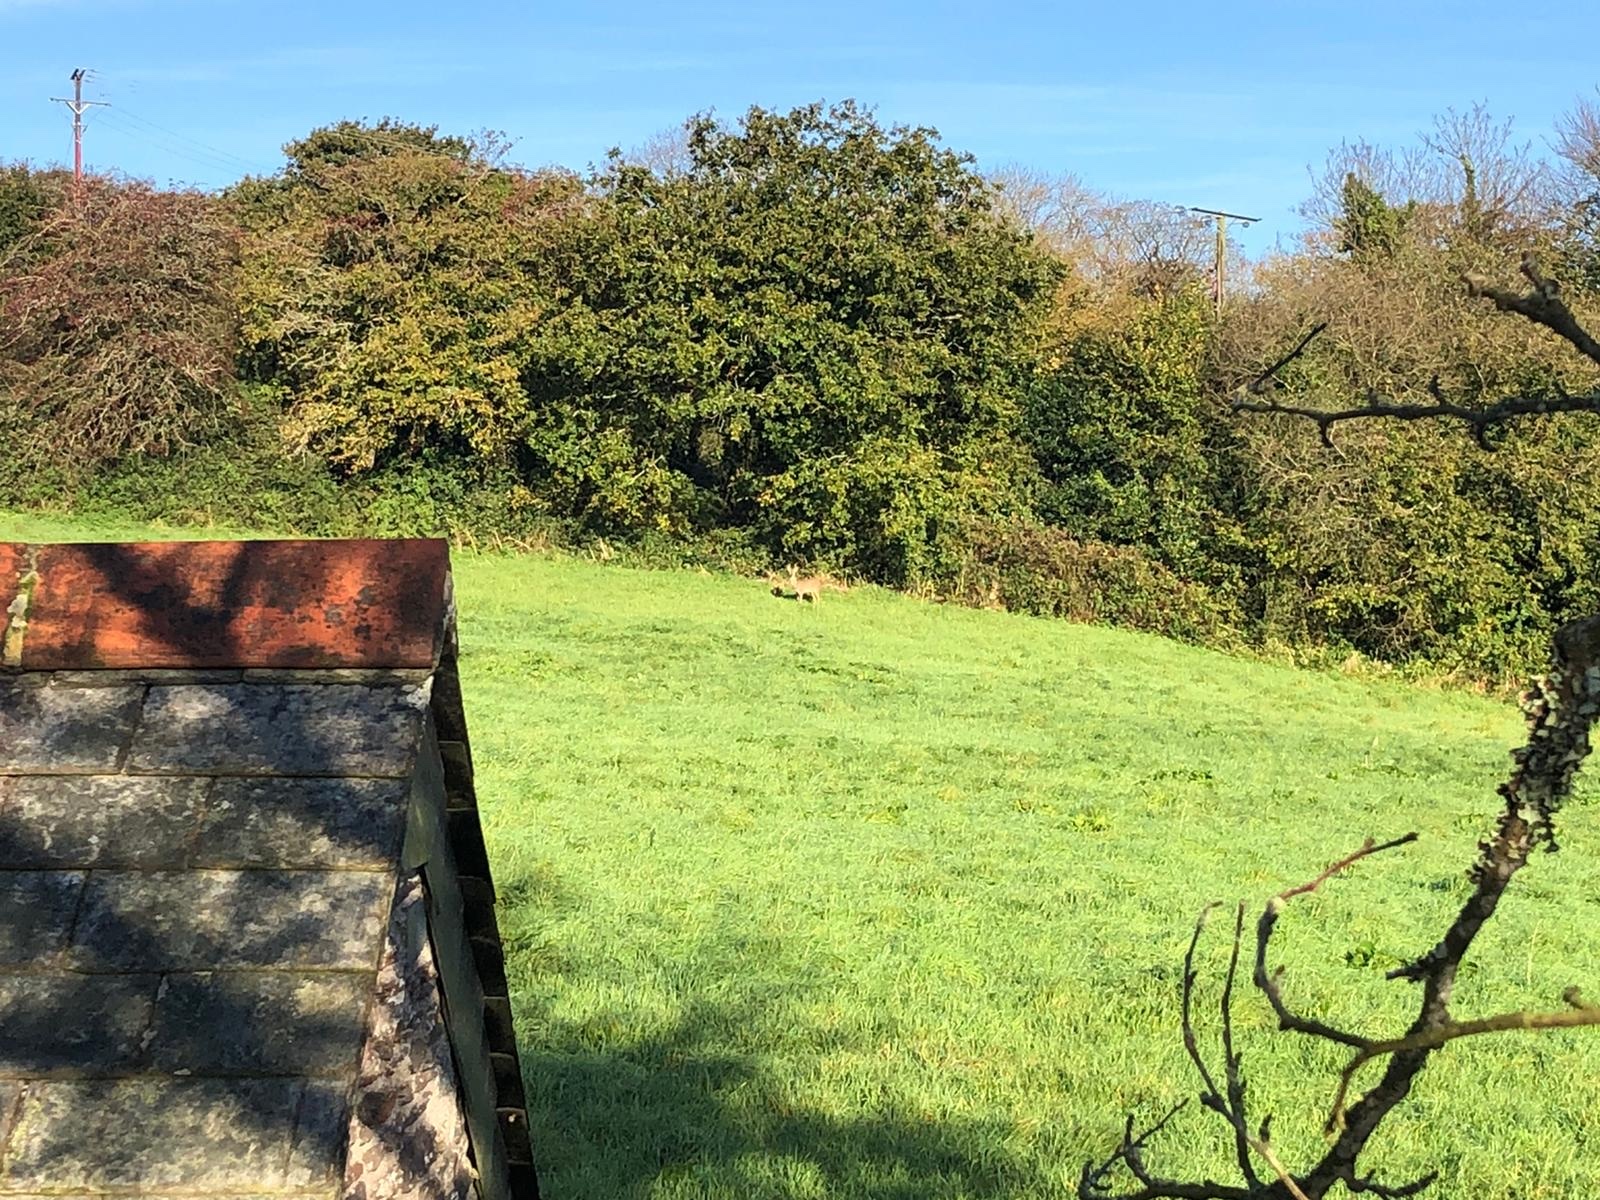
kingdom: Animalia
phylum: Chordata
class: Mammalia
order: Artiodactyla
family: Cervidae
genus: Capreolus
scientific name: Capreolus capreolus
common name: Western roe deer
